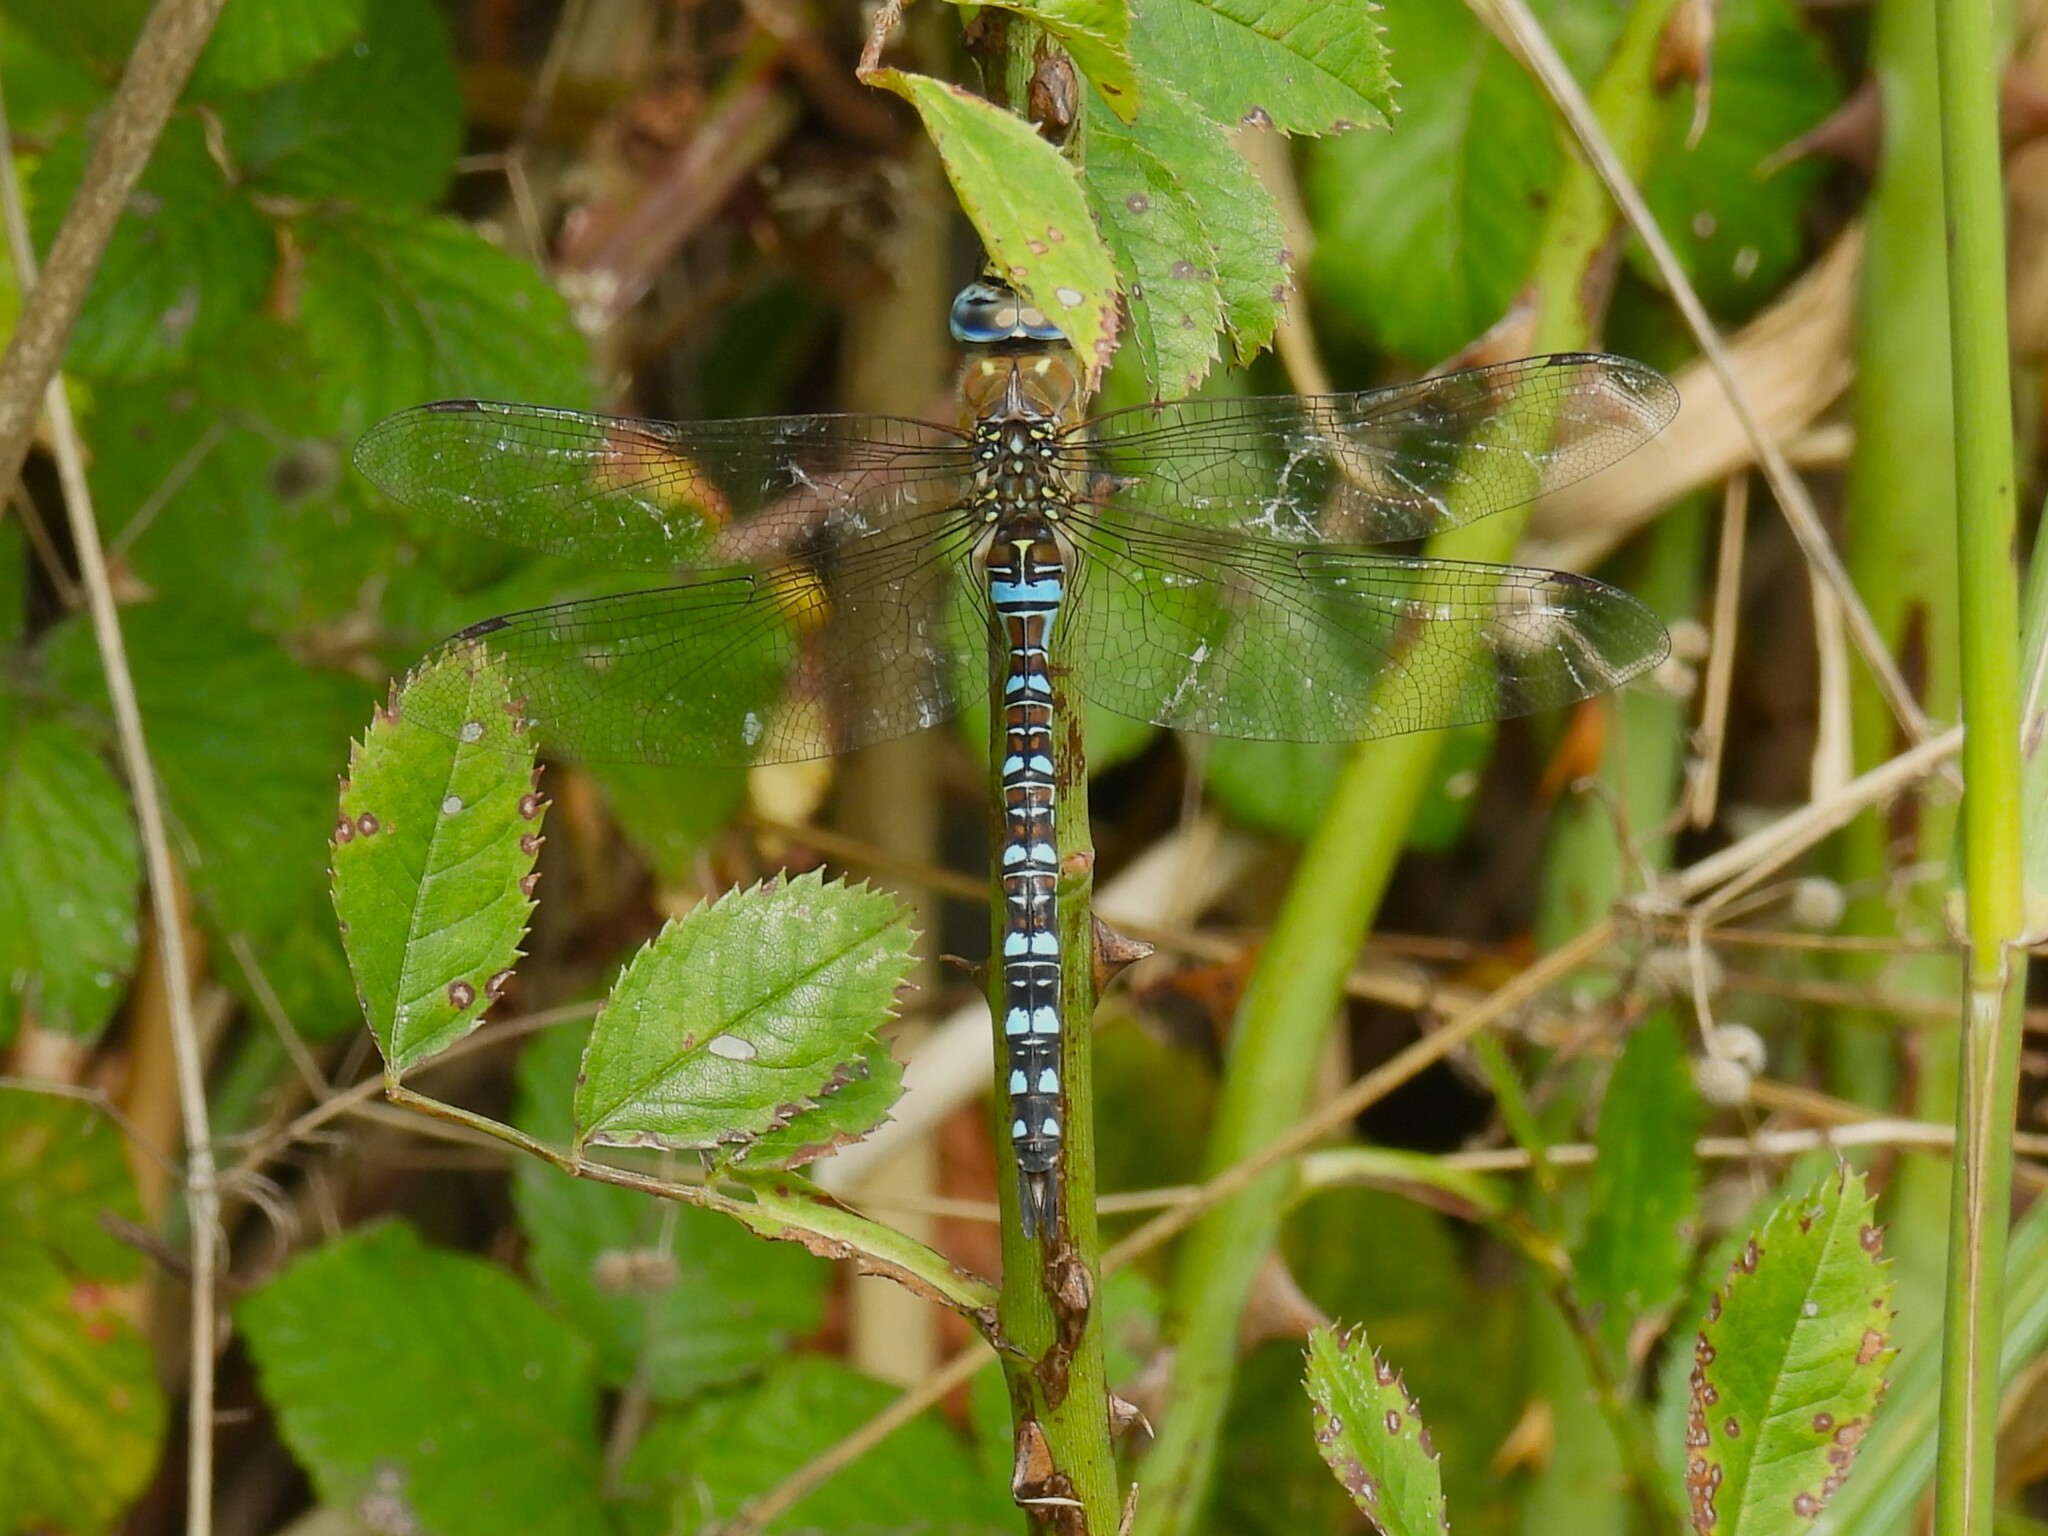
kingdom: Animalia
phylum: Arthropoda
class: Insecta
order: Odonata
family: Aeshnidae
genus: Aeshna
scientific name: Aeshna mixta
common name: Migrant hawker
